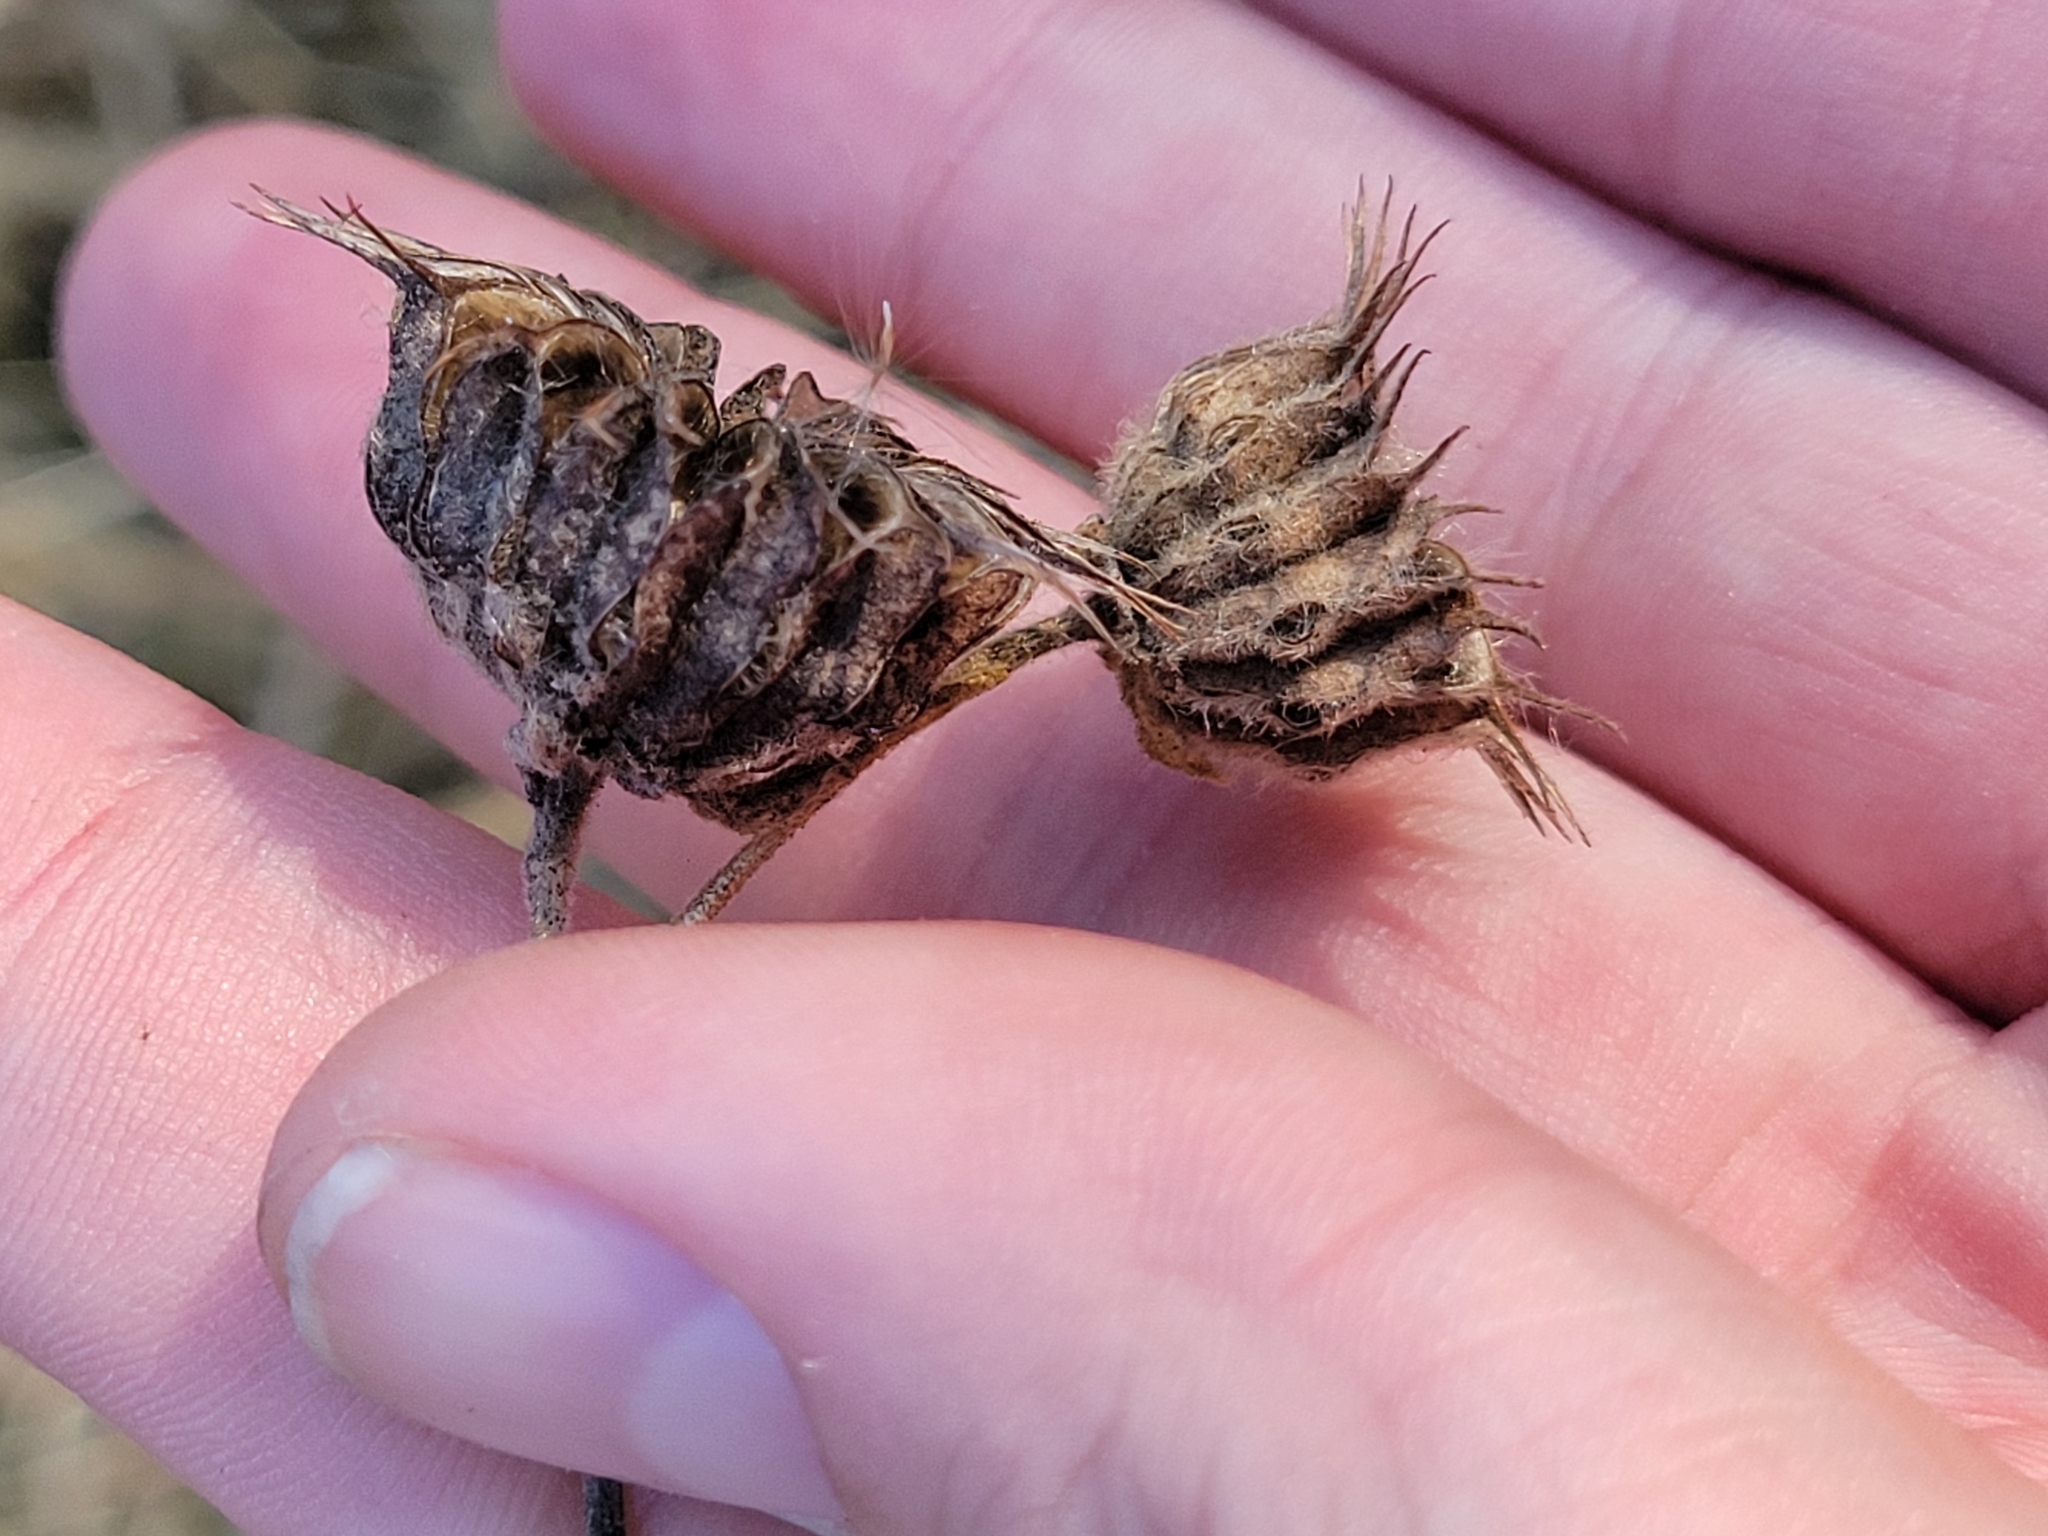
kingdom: Plantae
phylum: Tracheophyta
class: Magnoliopsida
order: Malvales
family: Malvaceae
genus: Abutilon
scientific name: Abutilon theophrasti
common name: Velvetleaf
